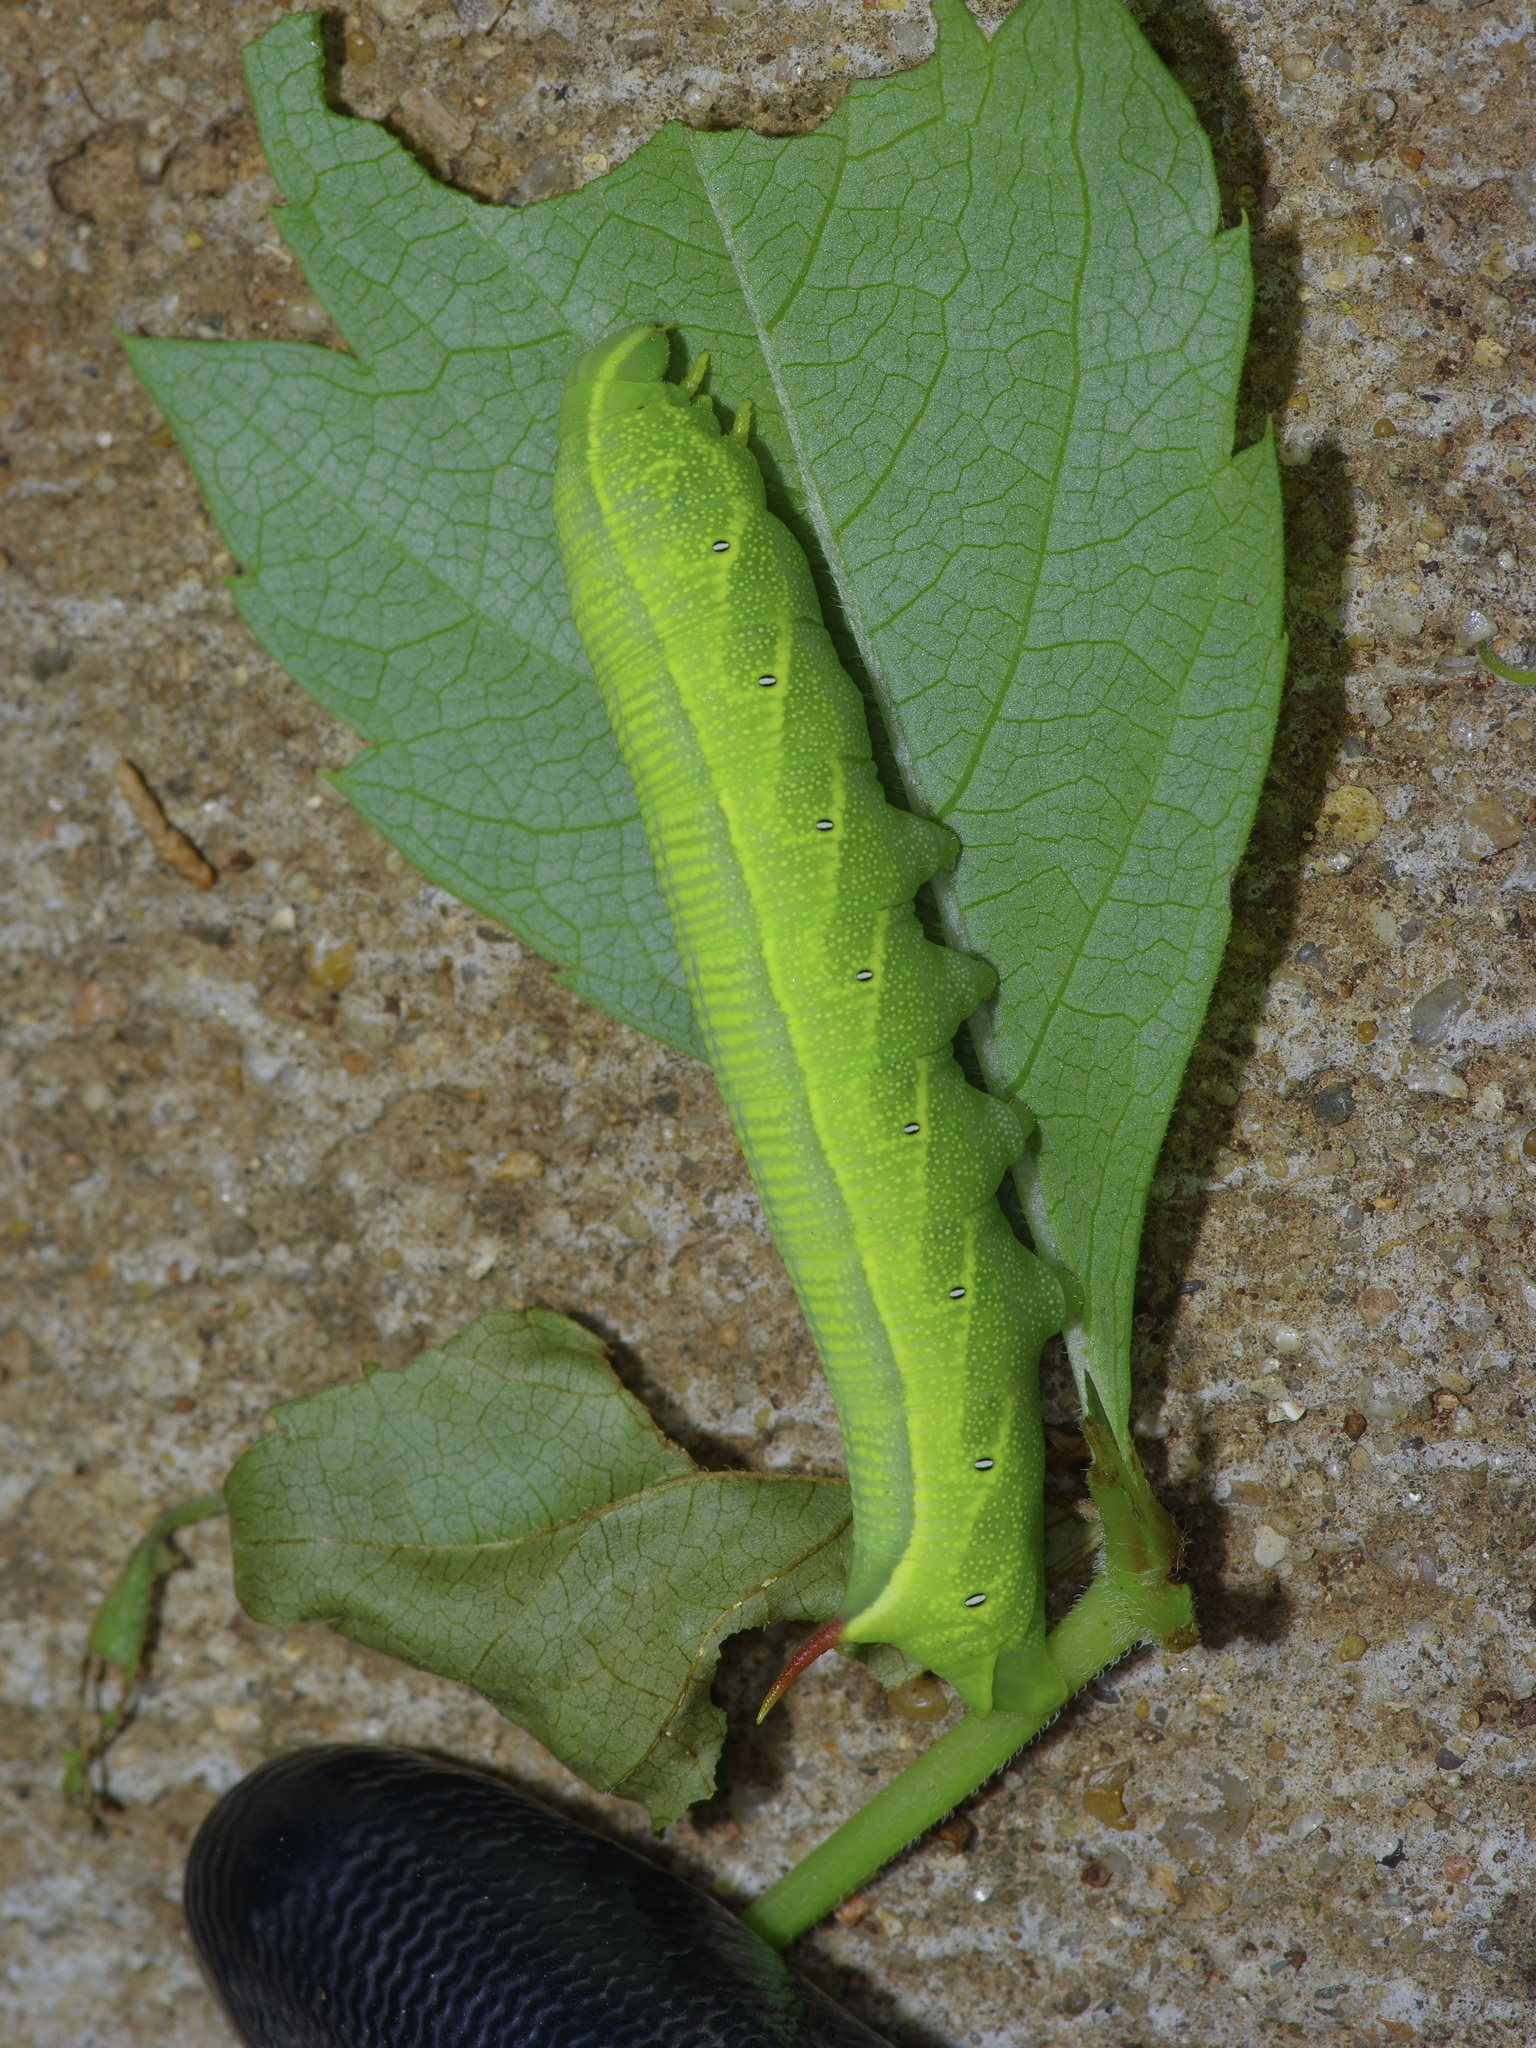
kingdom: Animalia
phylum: Arthropoda
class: Insecta
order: Lepidoptera
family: Sphingidae
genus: Deidamia
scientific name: Deidamia inscriptum
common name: Lettered sphinx
